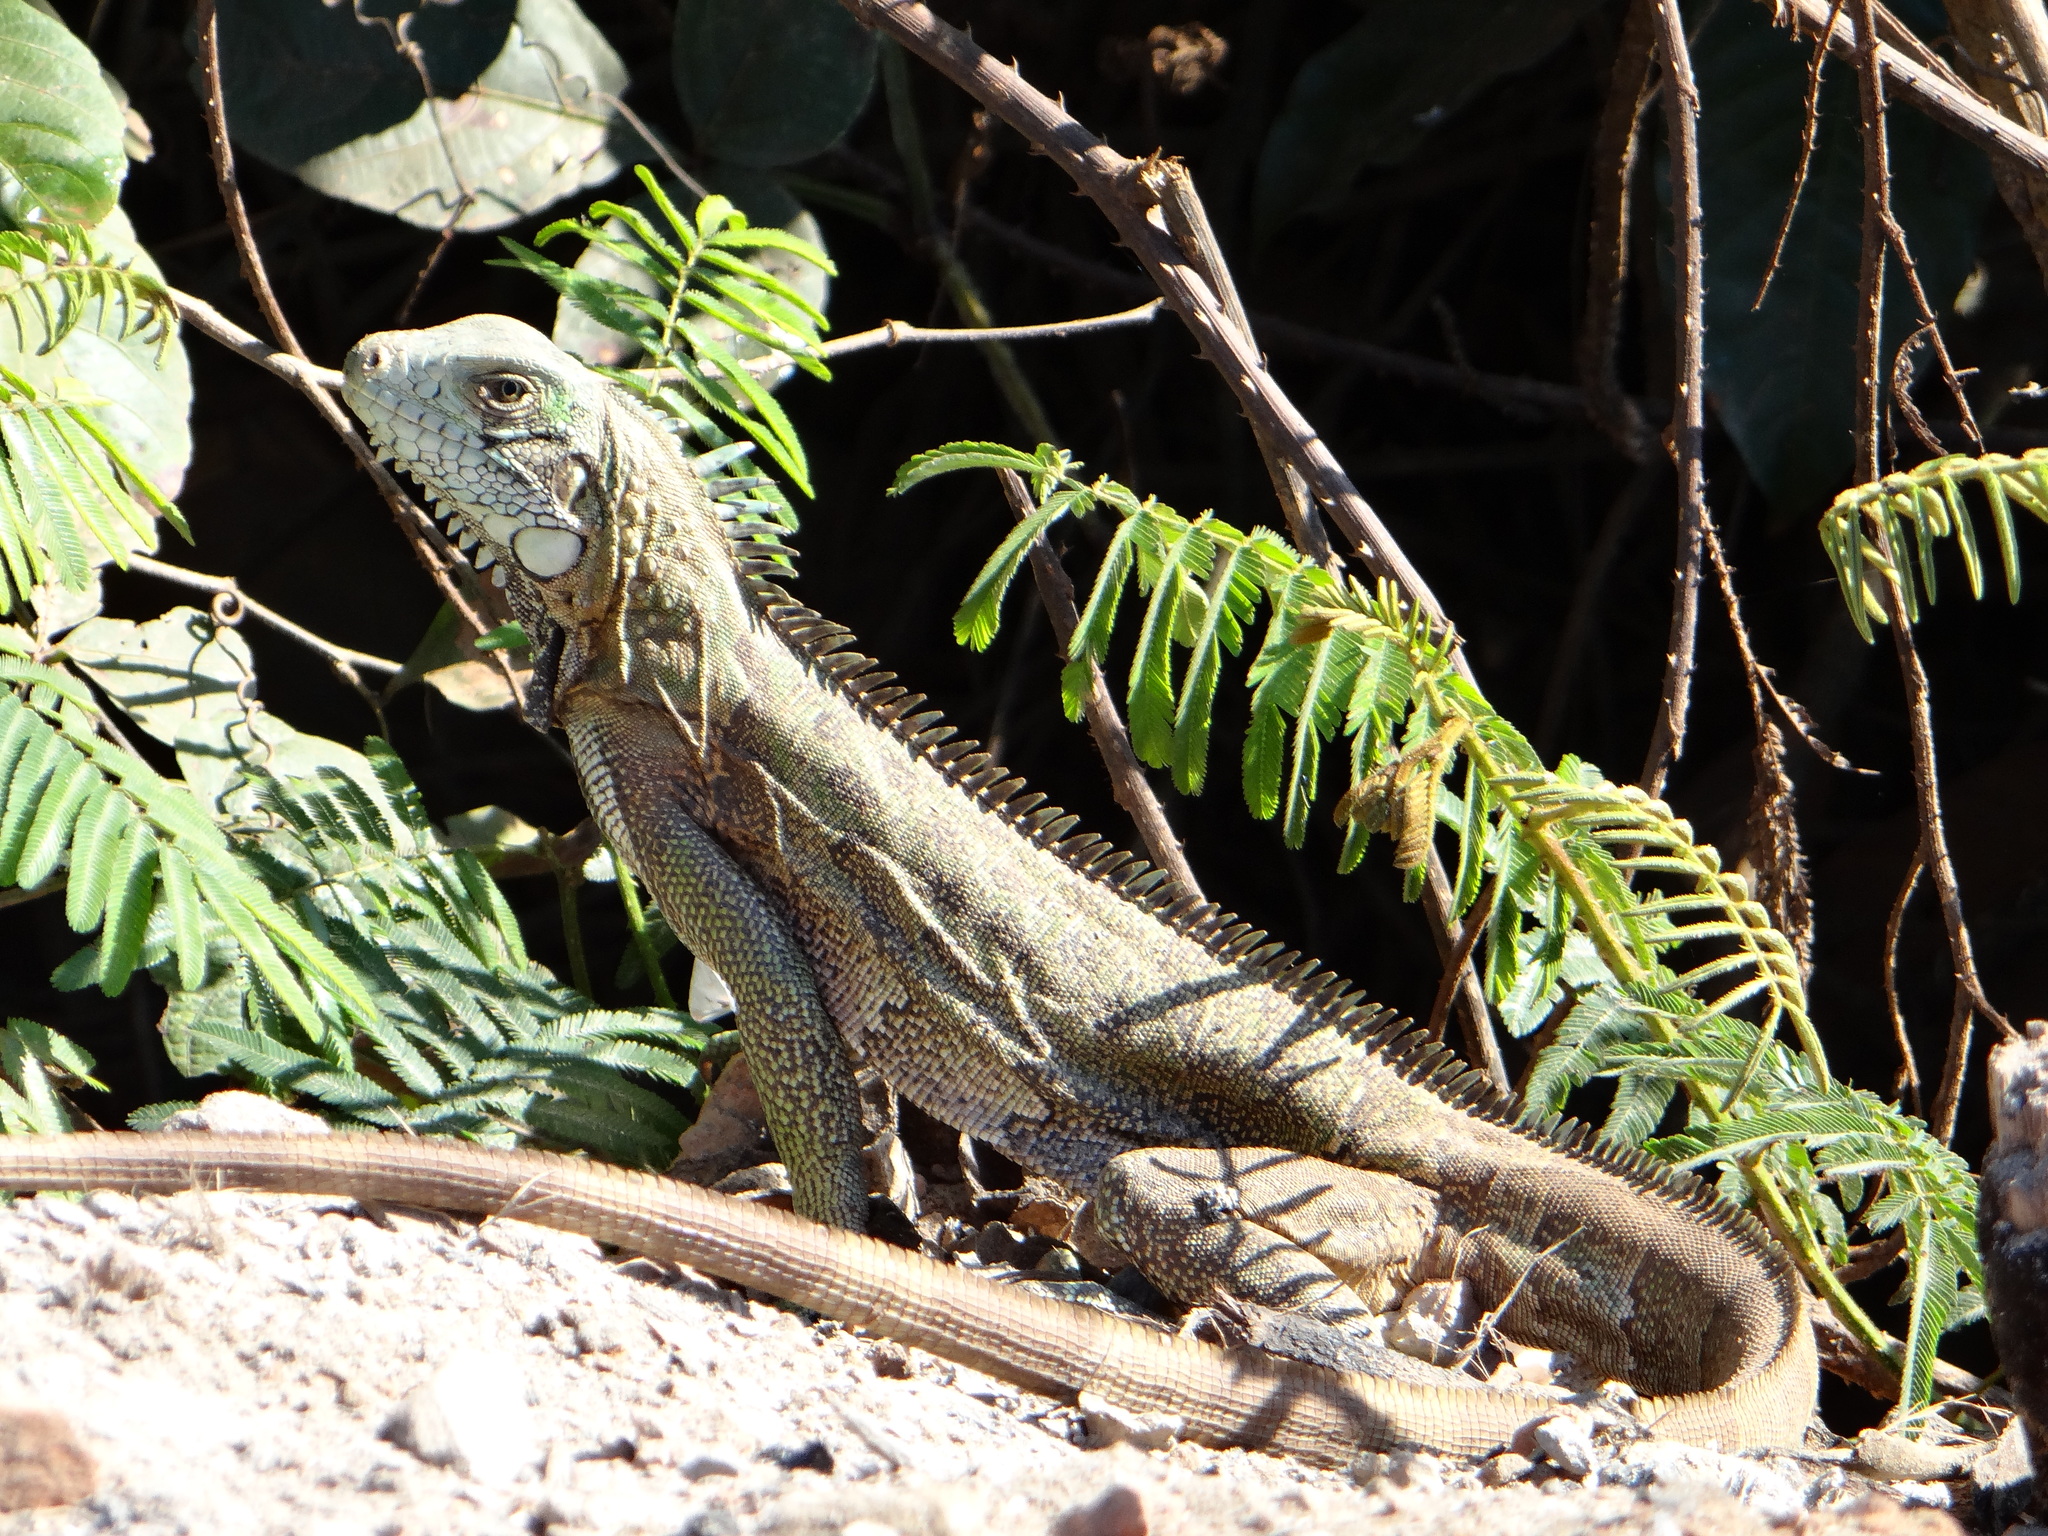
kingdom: Animalia
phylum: Chordata
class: Squamata
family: Iguanidae
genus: Iguana
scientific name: Iguana iguana
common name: Green iguana
